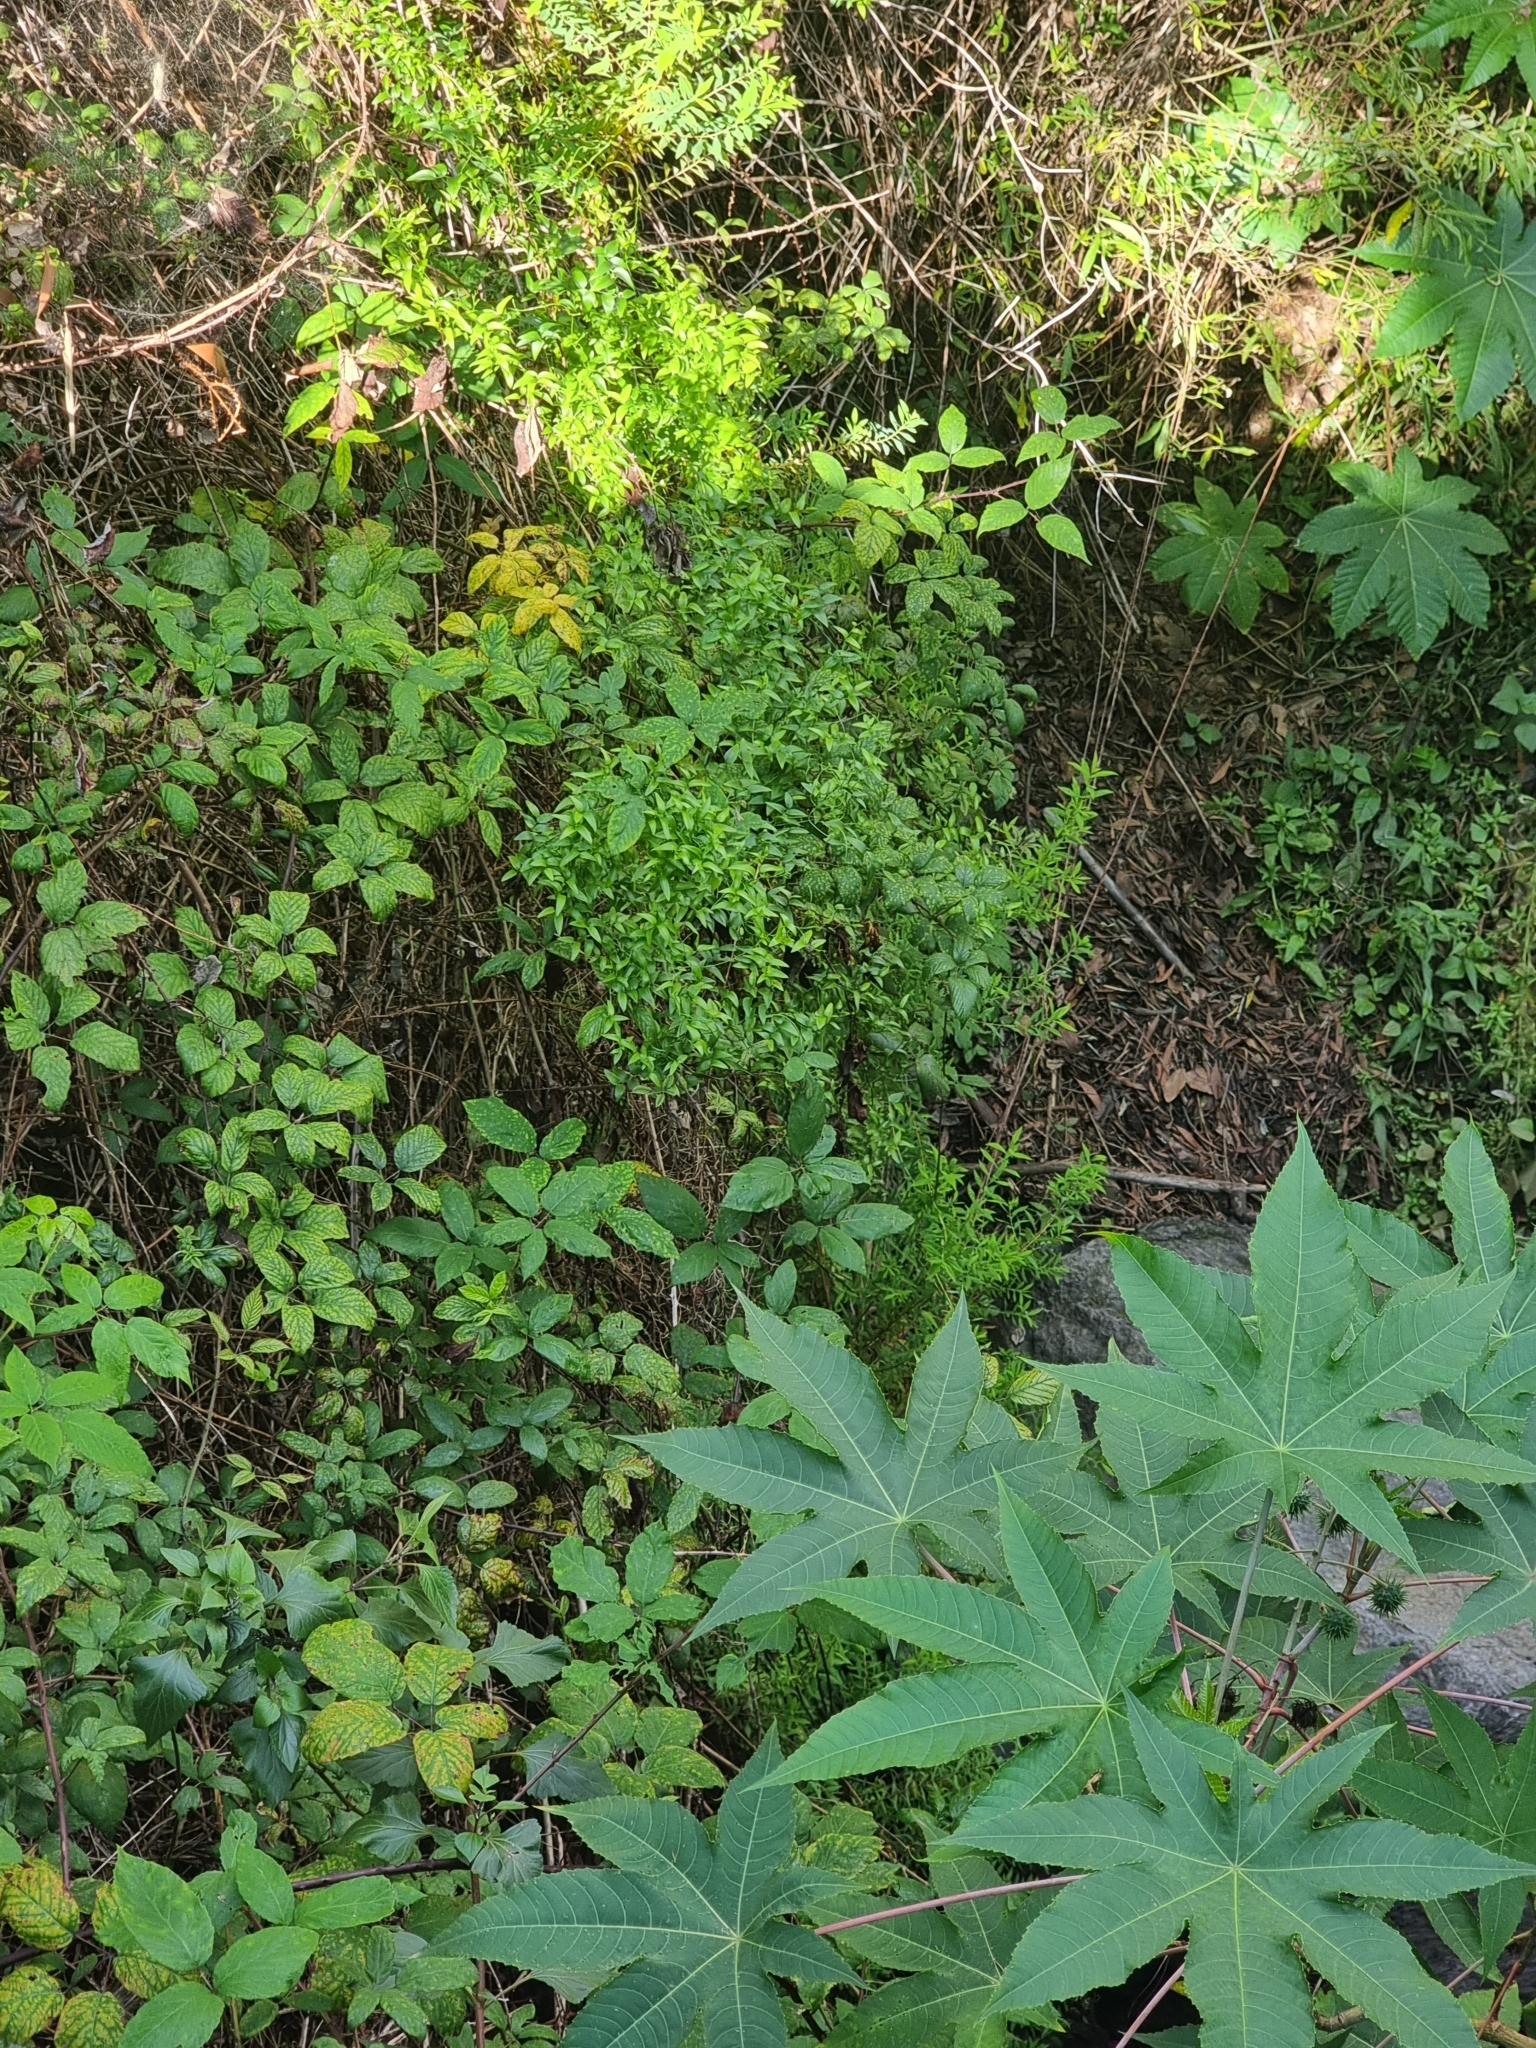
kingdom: Plantae
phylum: Tracheophyta
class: Liliopsida
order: Asparagales
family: Asparagaceae
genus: Asparagus
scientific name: Asparagus asparagoides
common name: African asparagus fern
